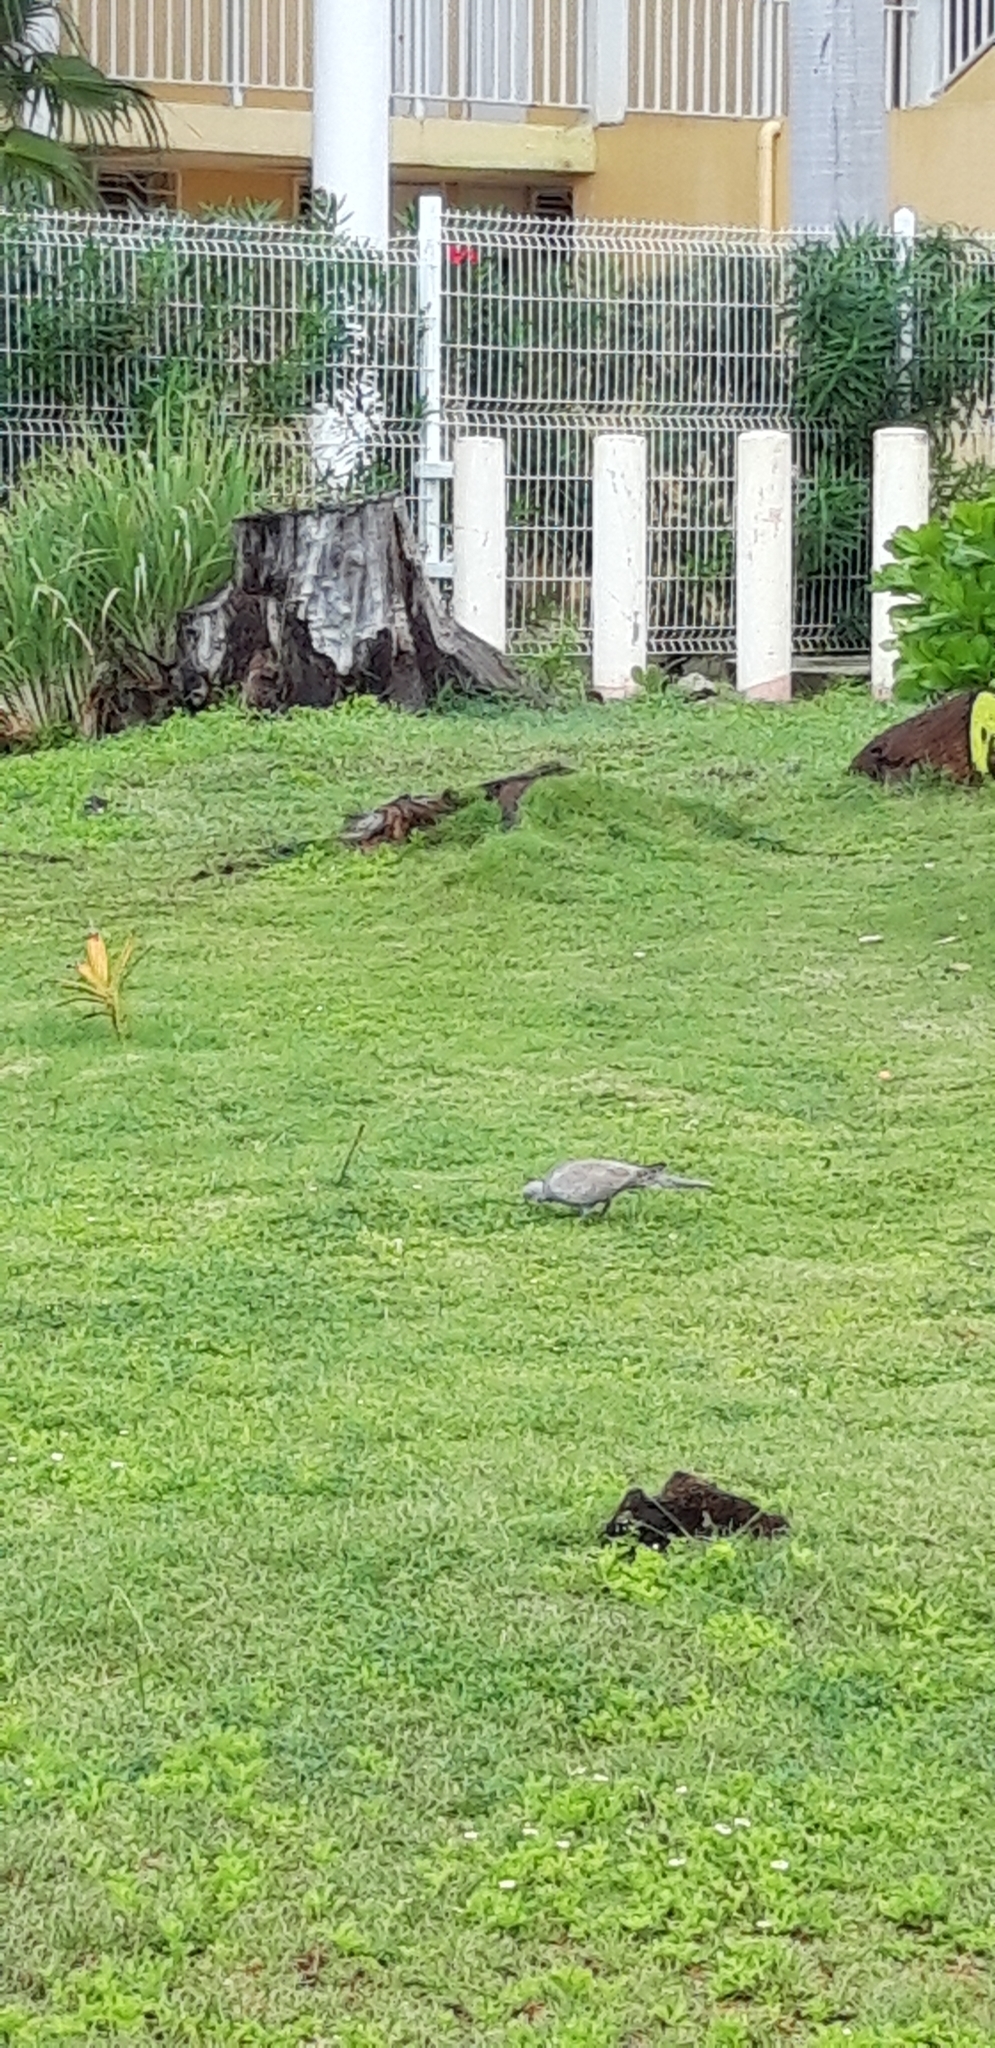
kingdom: Animalia
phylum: Chordata
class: Aves
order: Columbiformes
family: Columbidae
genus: Streptopelia
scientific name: Streptopelia decaocto
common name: Eurasian collared dove
